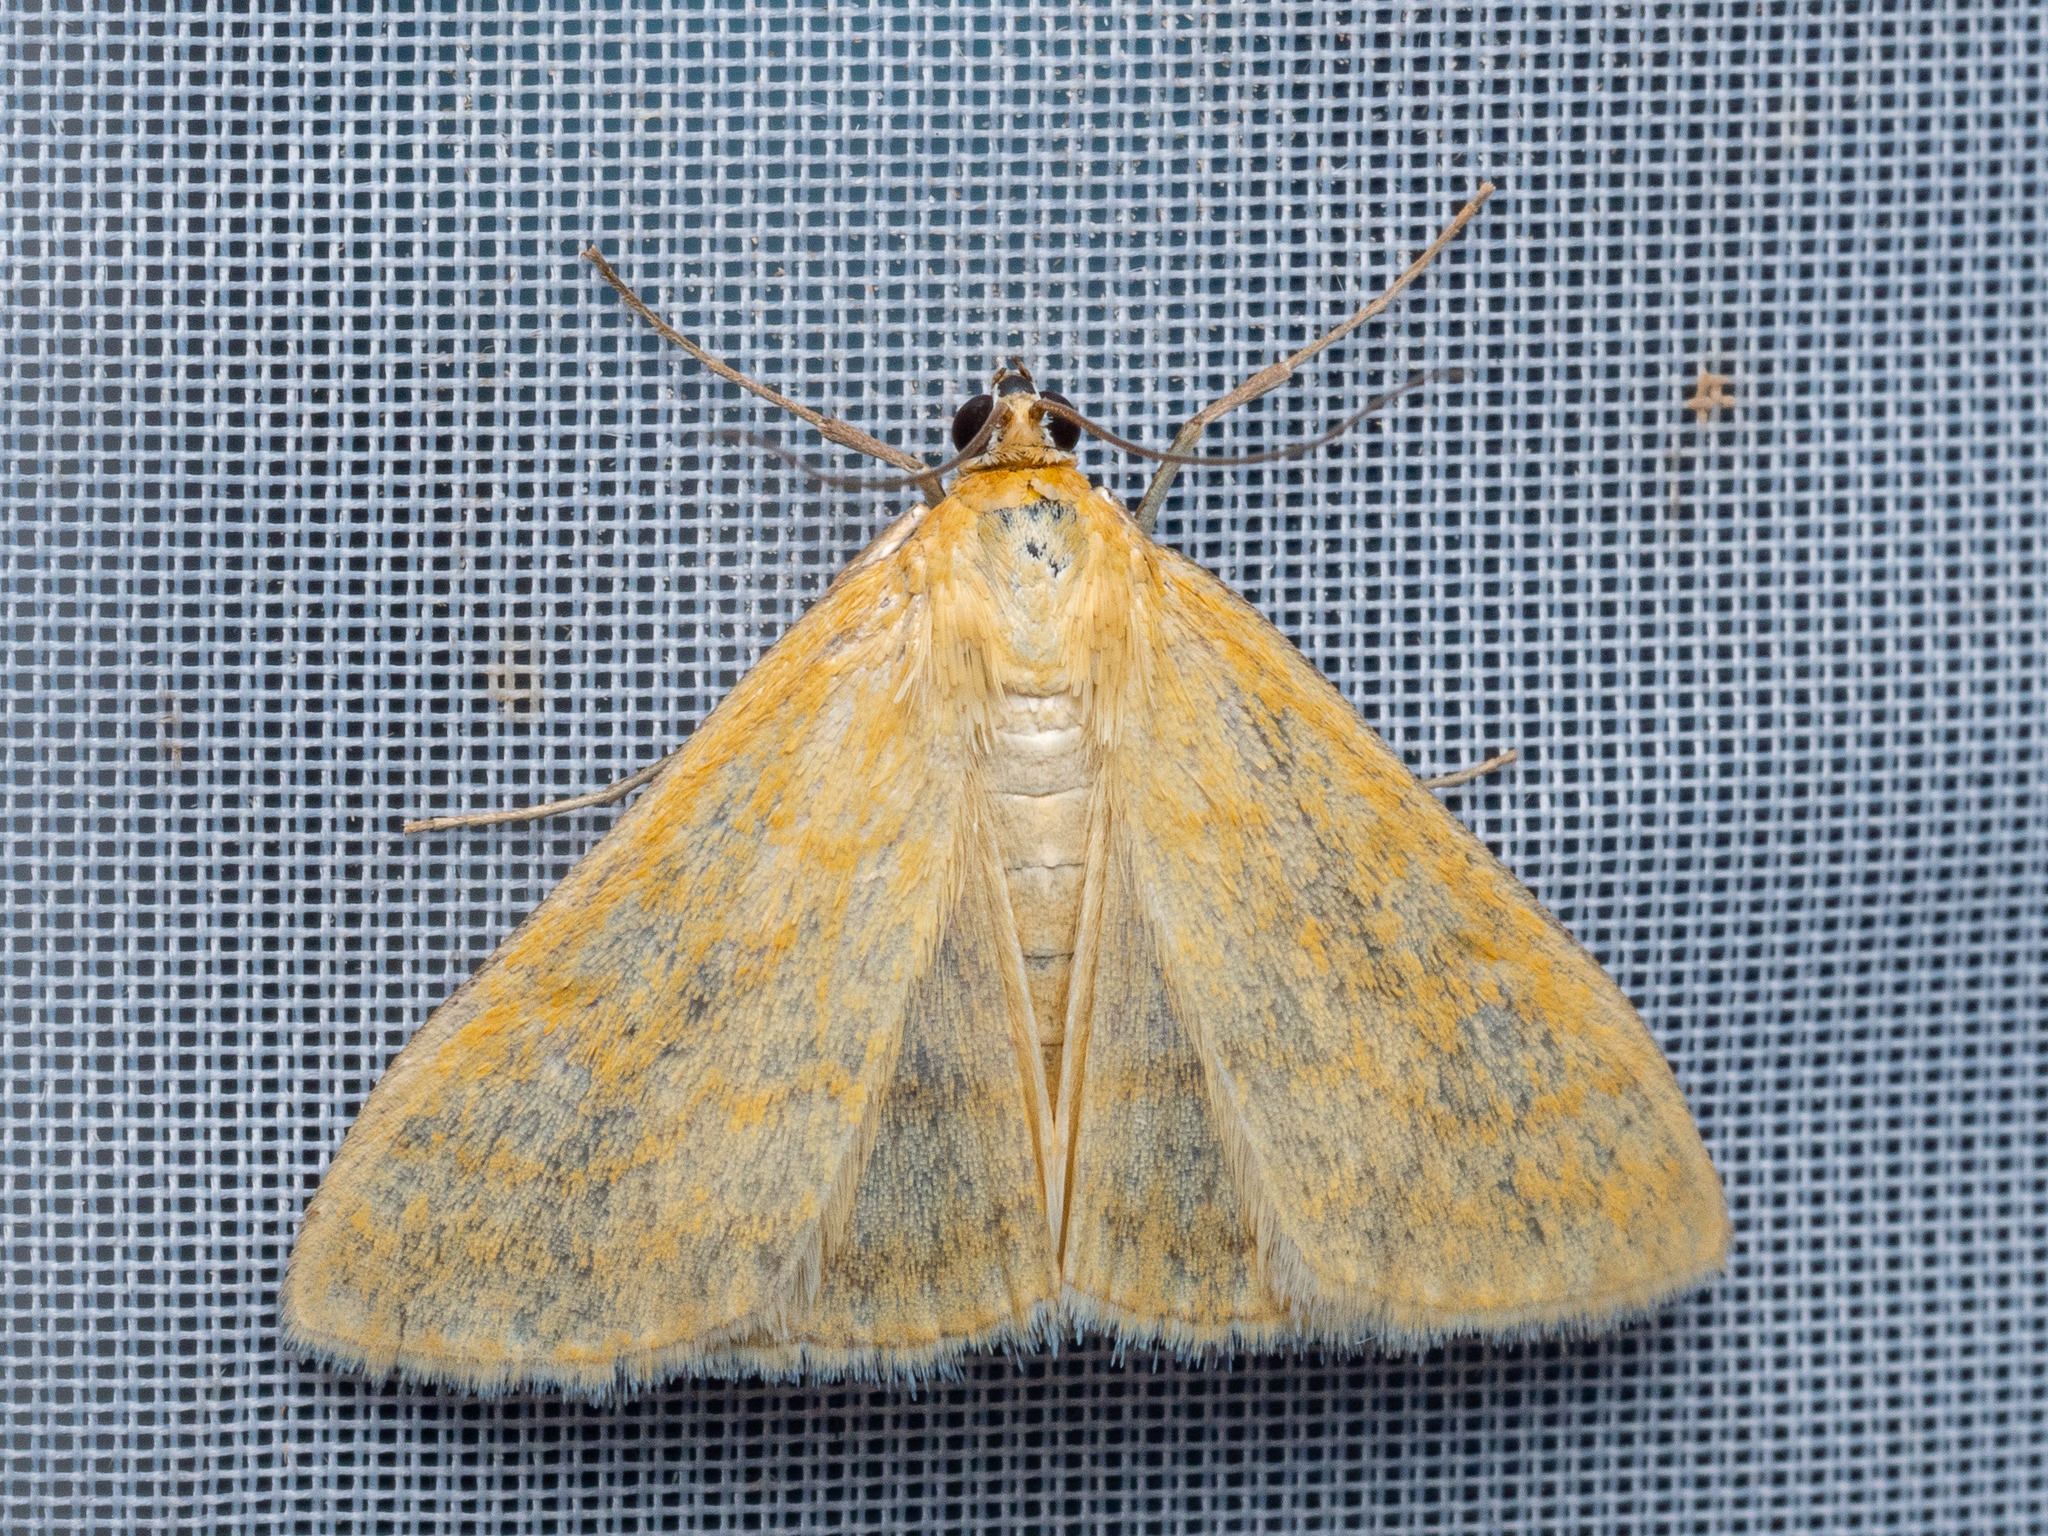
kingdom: Animalia
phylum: Arthropoda
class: Insecta
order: Lepidoptera
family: Crambidae
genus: Sitochroa
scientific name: Sitochroa verticalis
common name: Lesser pearl
